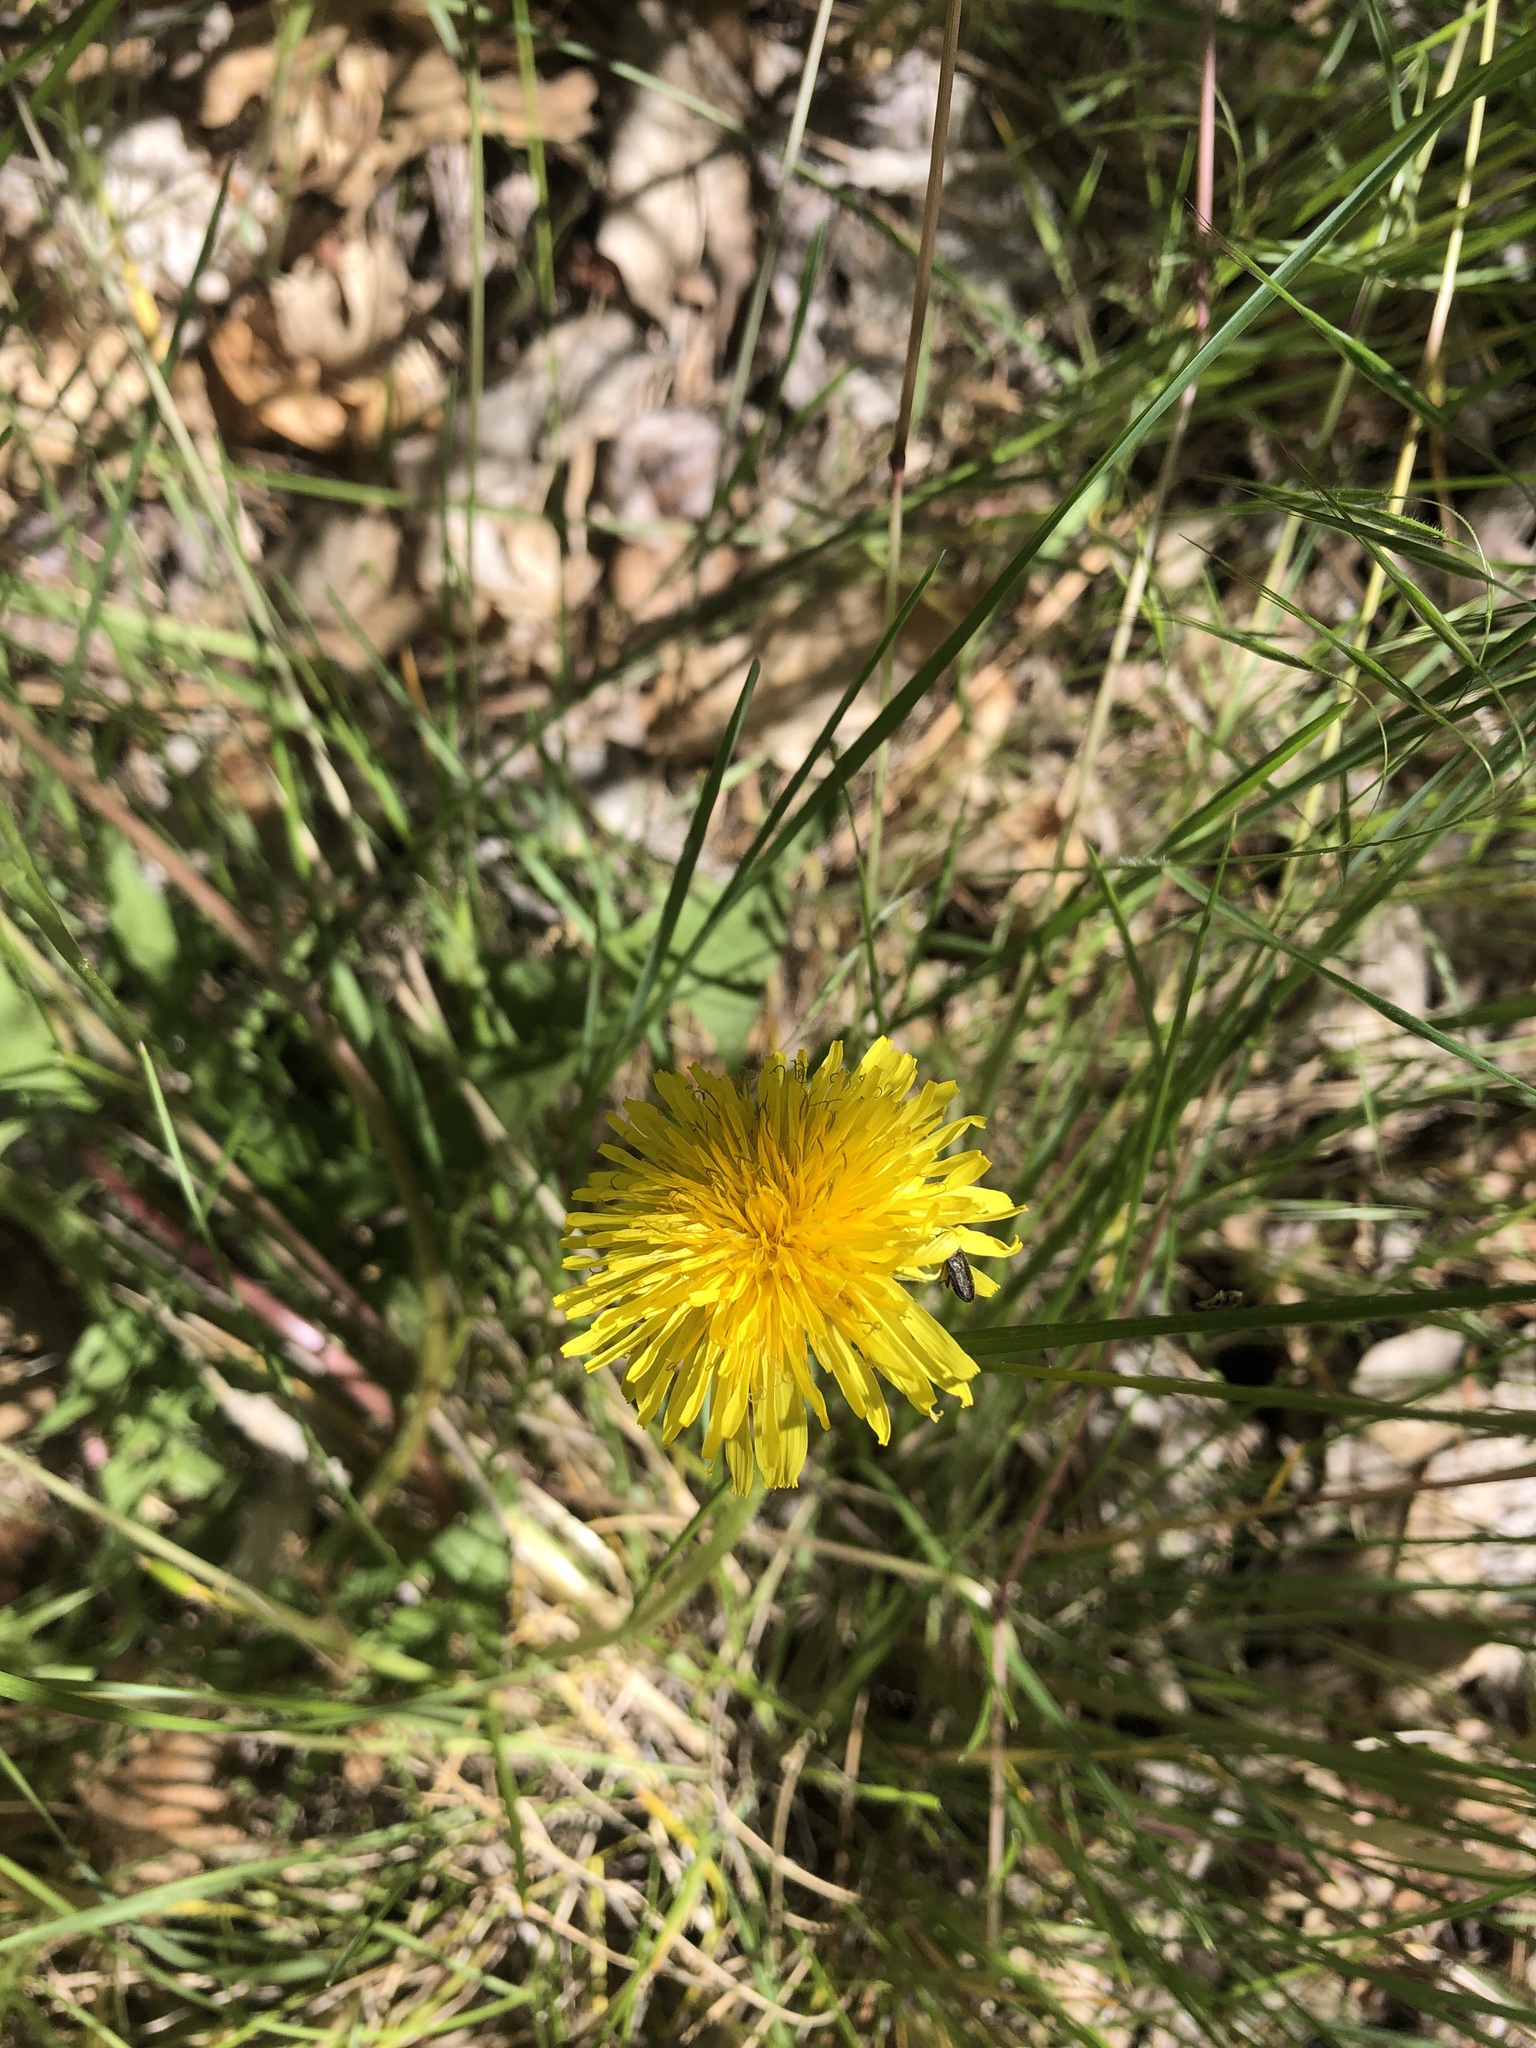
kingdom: Plantae
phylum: Tracheophyta
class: Magnoliopsida
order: Asterales
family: Asteraceae
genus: Taraxacum
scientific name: Taraxacum officinale
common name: Common dandelion
